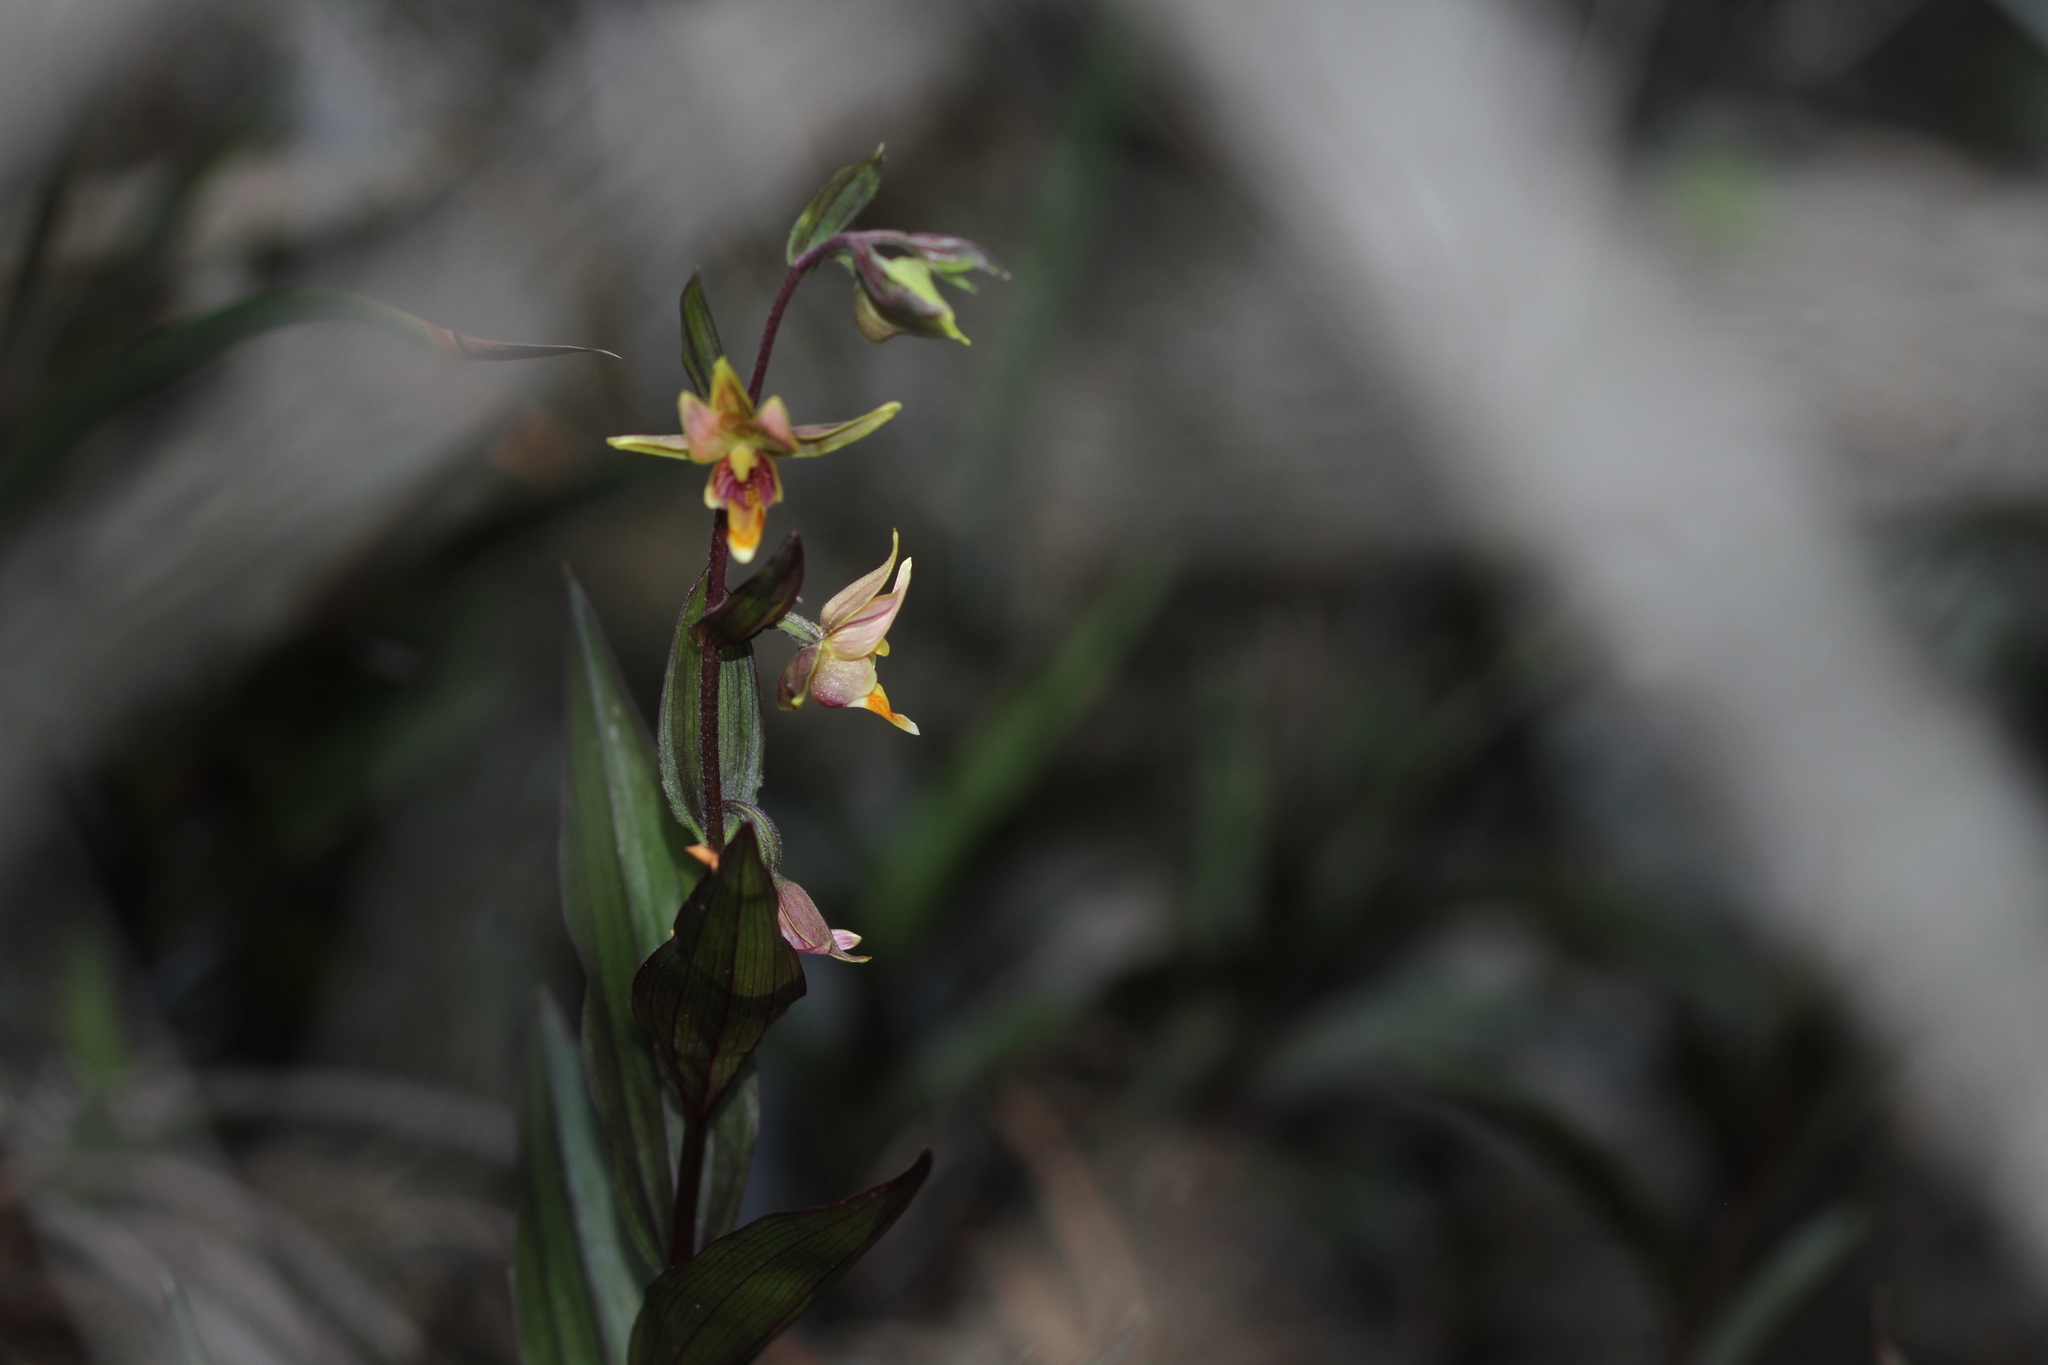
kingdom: Plantae
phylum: Tracheophyta
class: Liliopsida
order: Asparagales
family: Orchidaceae
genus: Epipactis
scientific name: Epipactis gigantea
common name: Chatterbox
